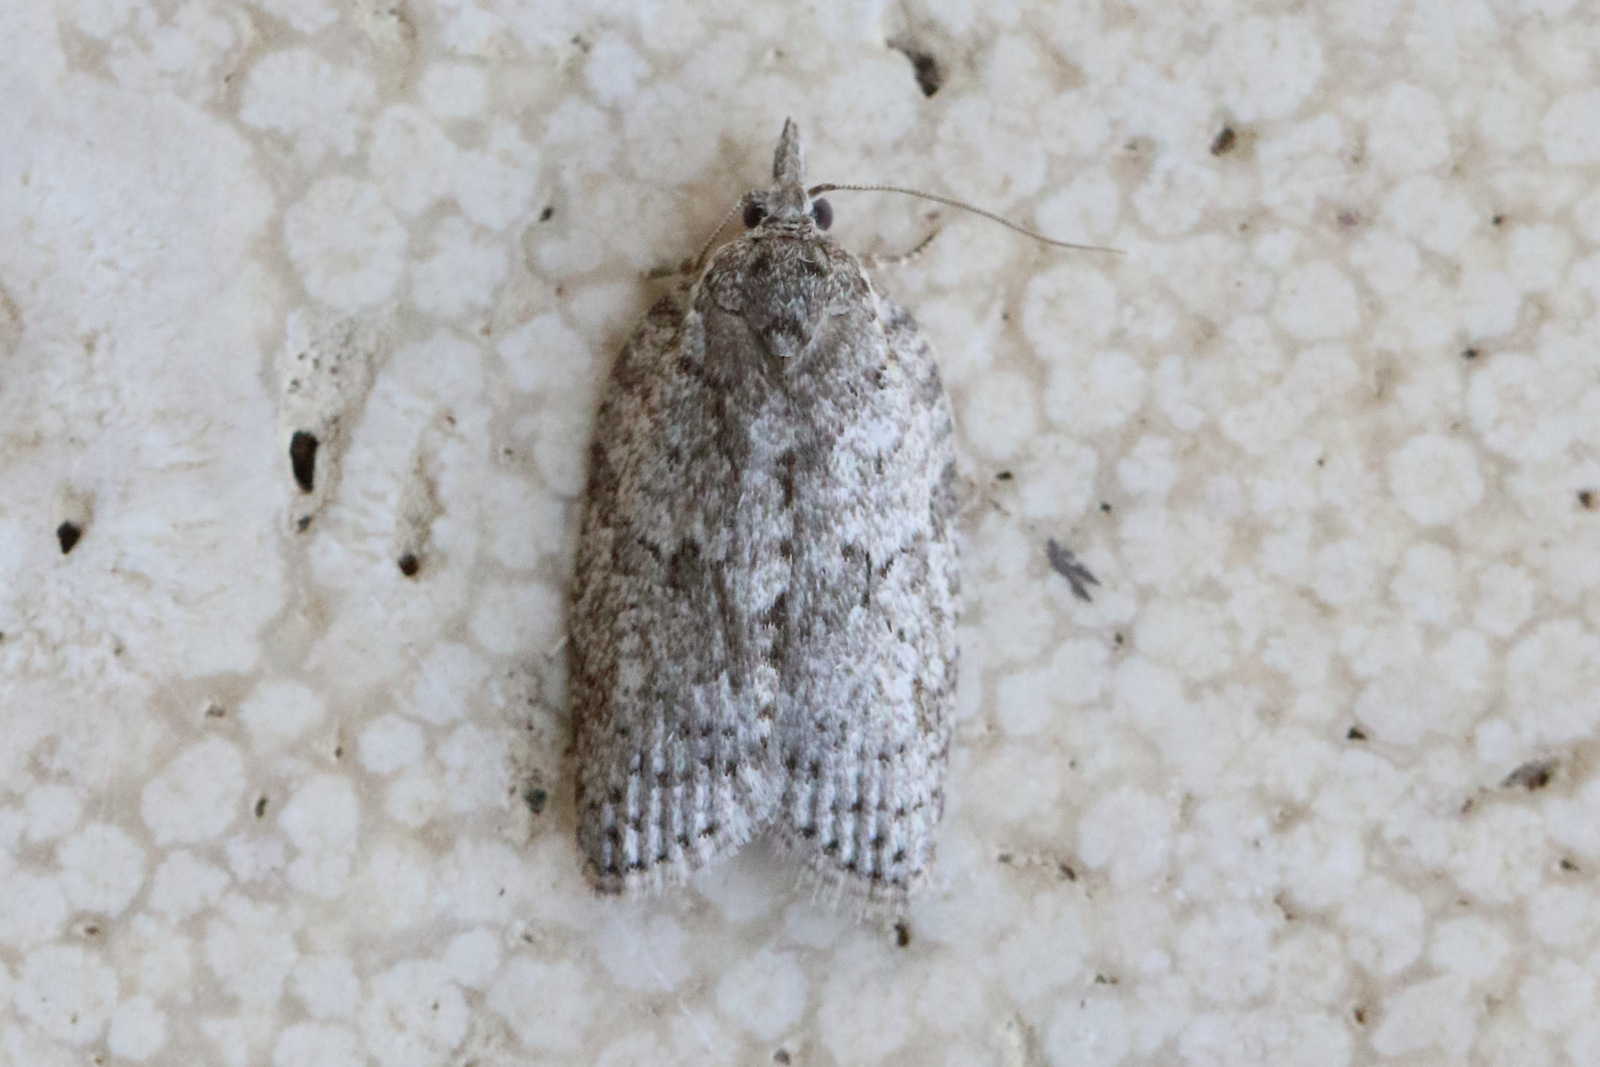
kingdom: Animalia
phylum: Arthropoda
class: Insecta
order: Lepidoptera
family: Tortricidae
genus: Isotenes
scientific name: Isotenes miserana
